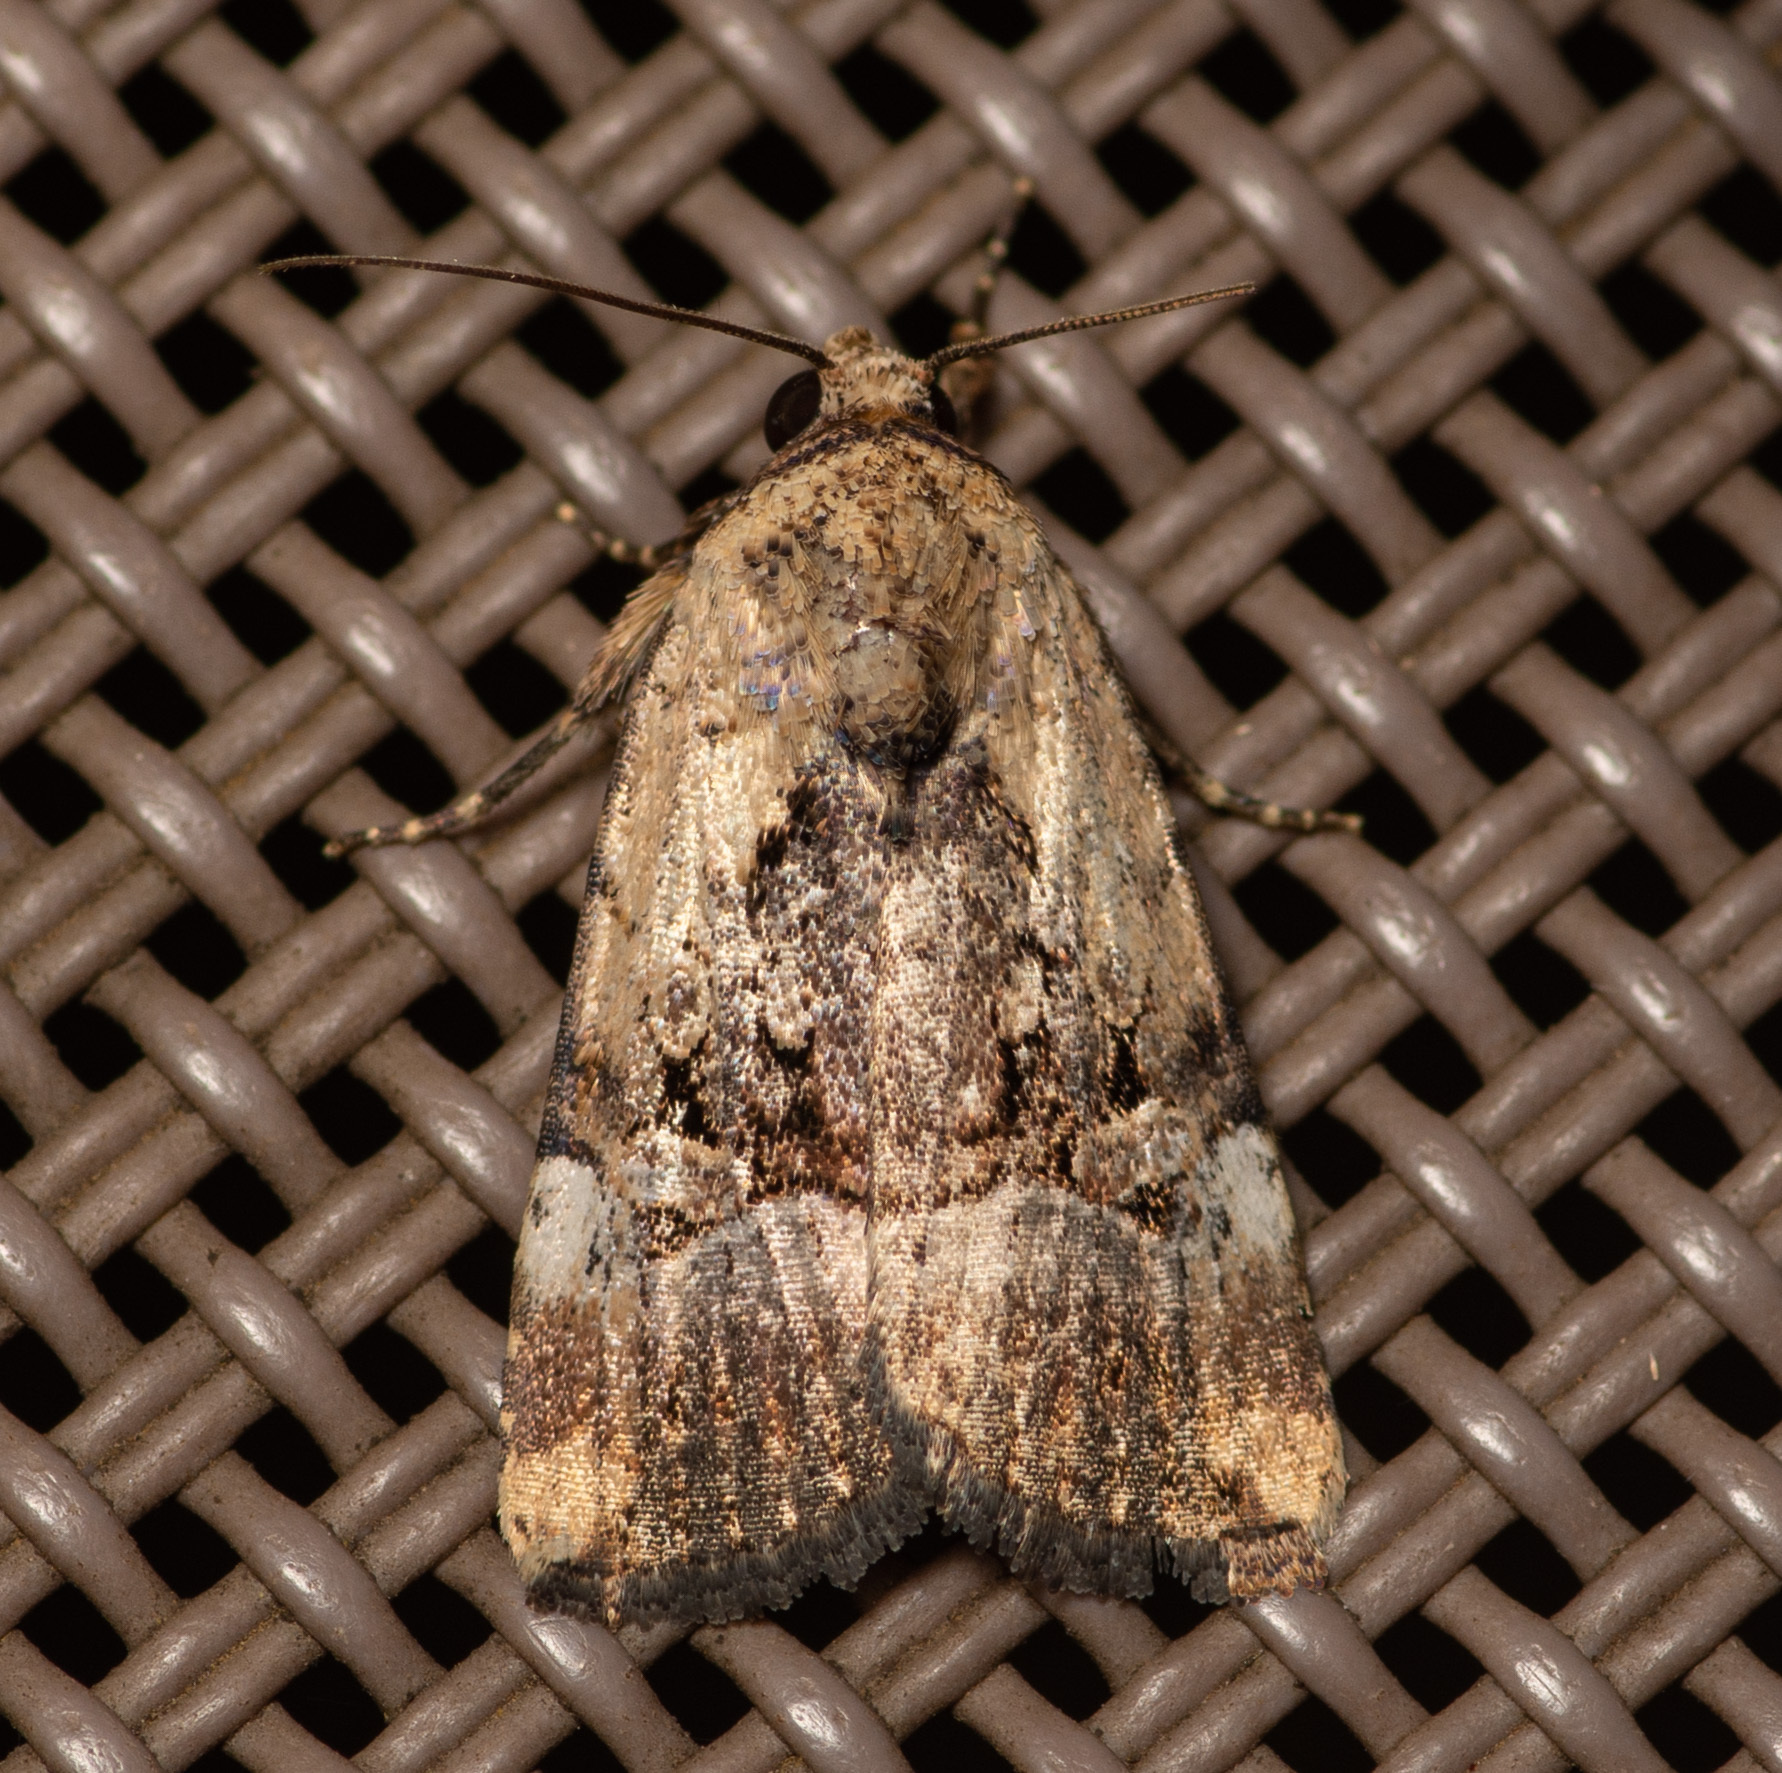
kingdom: Animalia
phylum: Arthropoda
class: Insecta
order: Lepidoptera
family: Noctuidae
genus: Elaphria
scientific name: Elaphria chalcedonia
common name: Chalcedony midget
